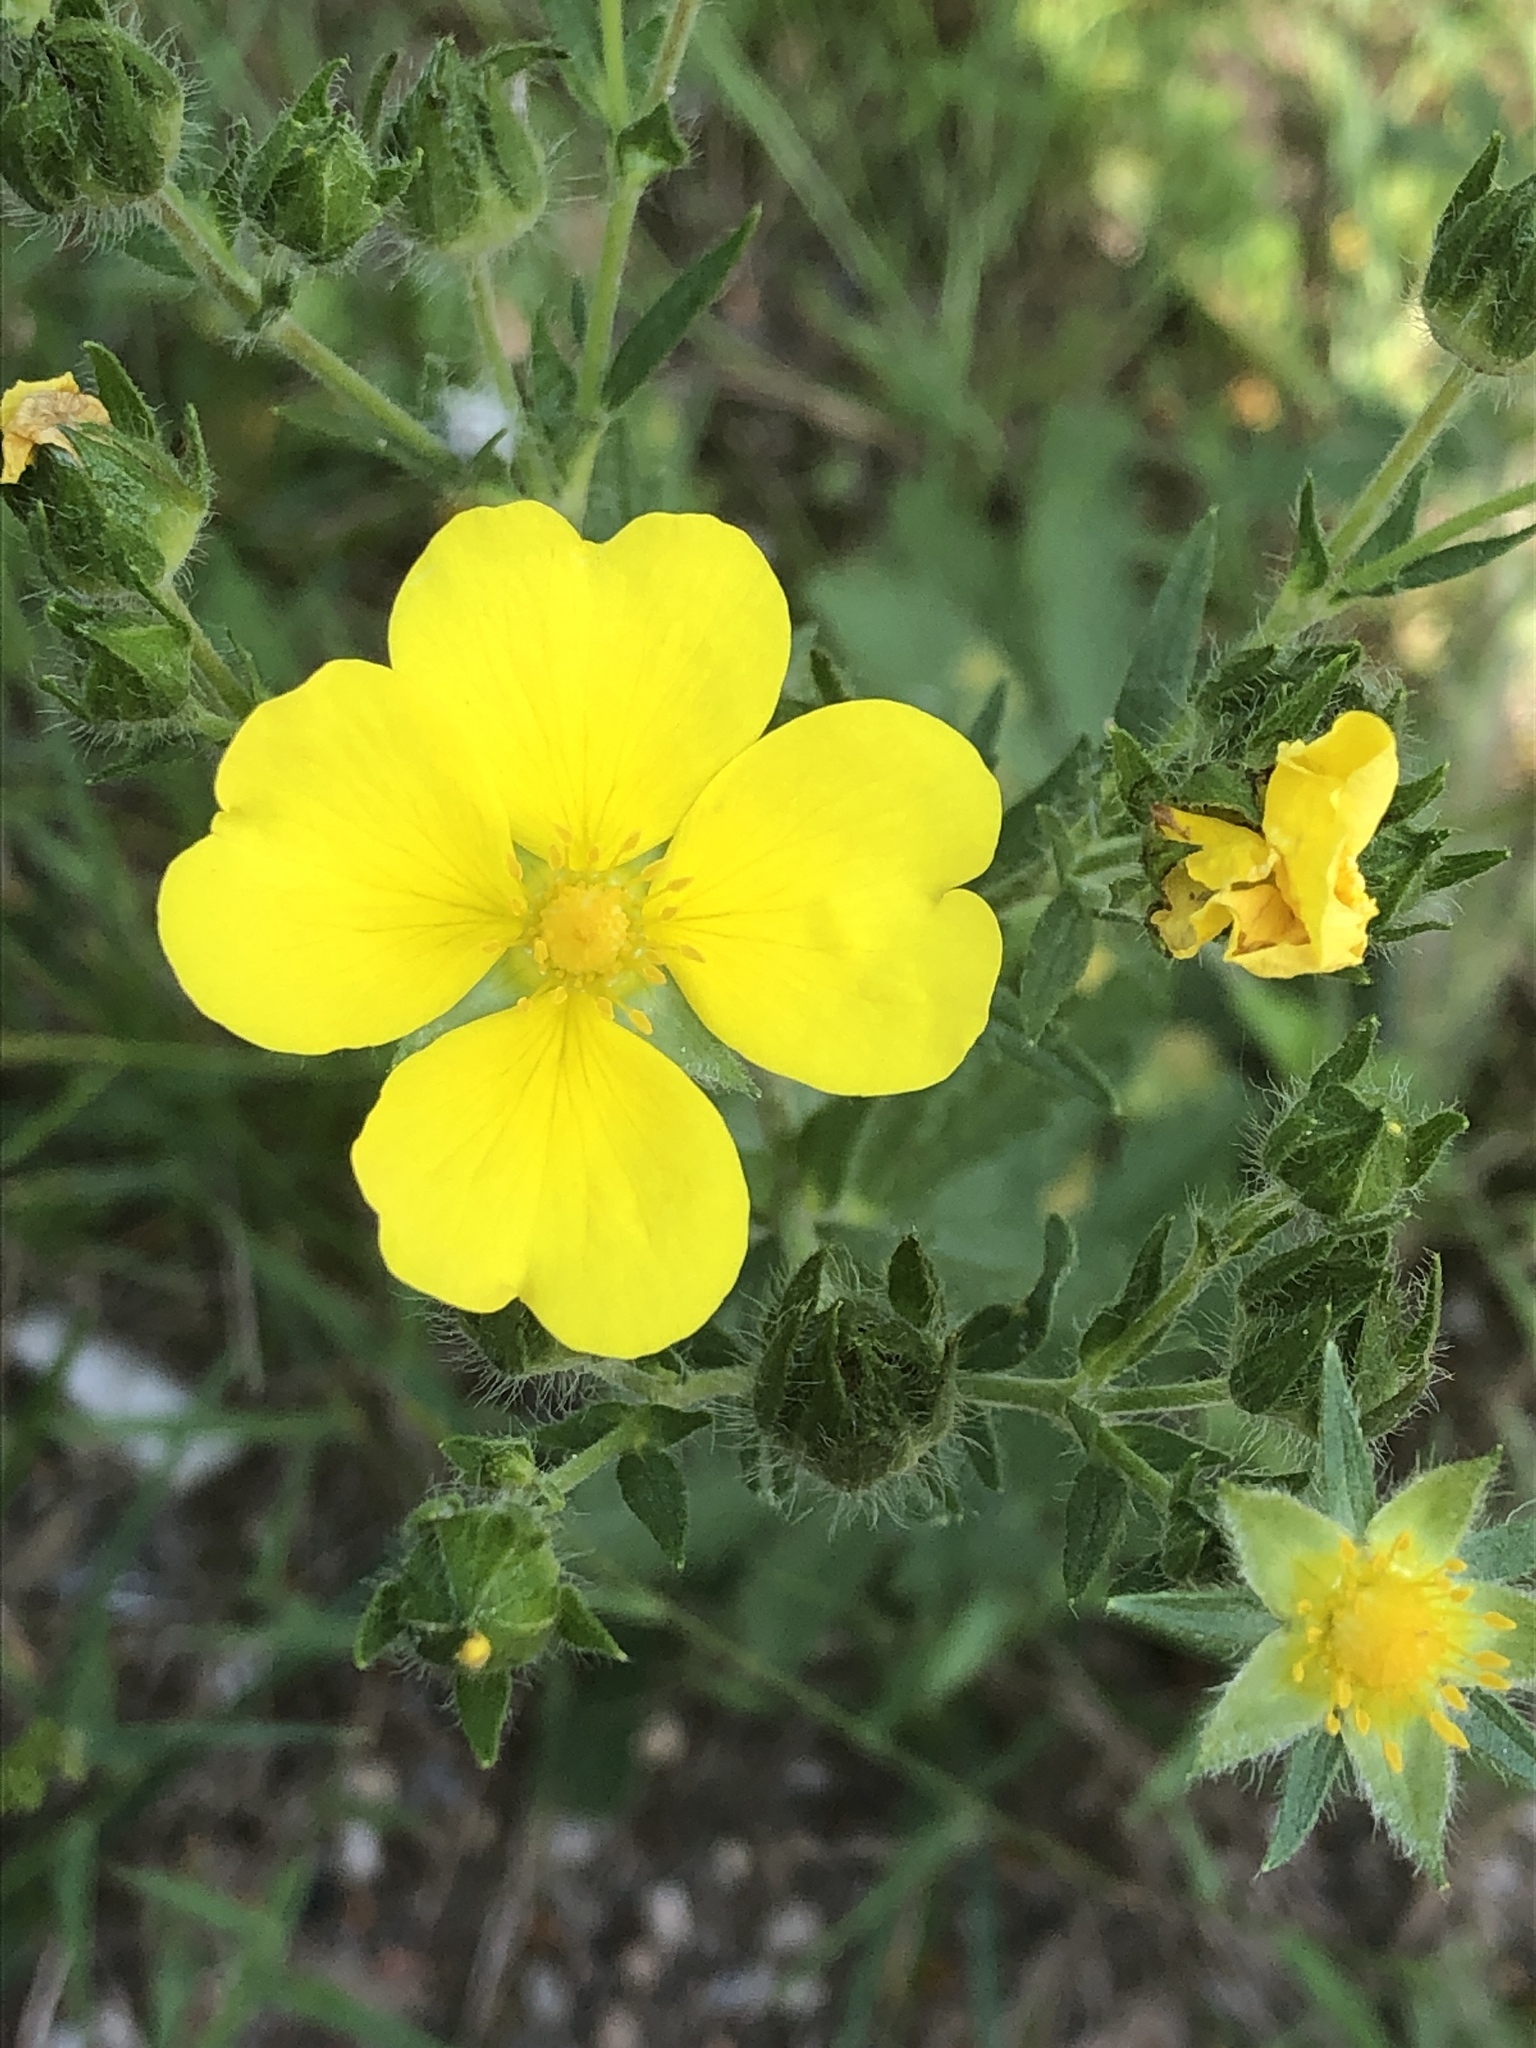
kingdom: Plantae
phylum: Tracheophyta
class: Magnoliopsida
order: Rosales
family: Rosaceae
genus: Potentilla
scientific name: Potentilla erecta
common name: Tormentil
